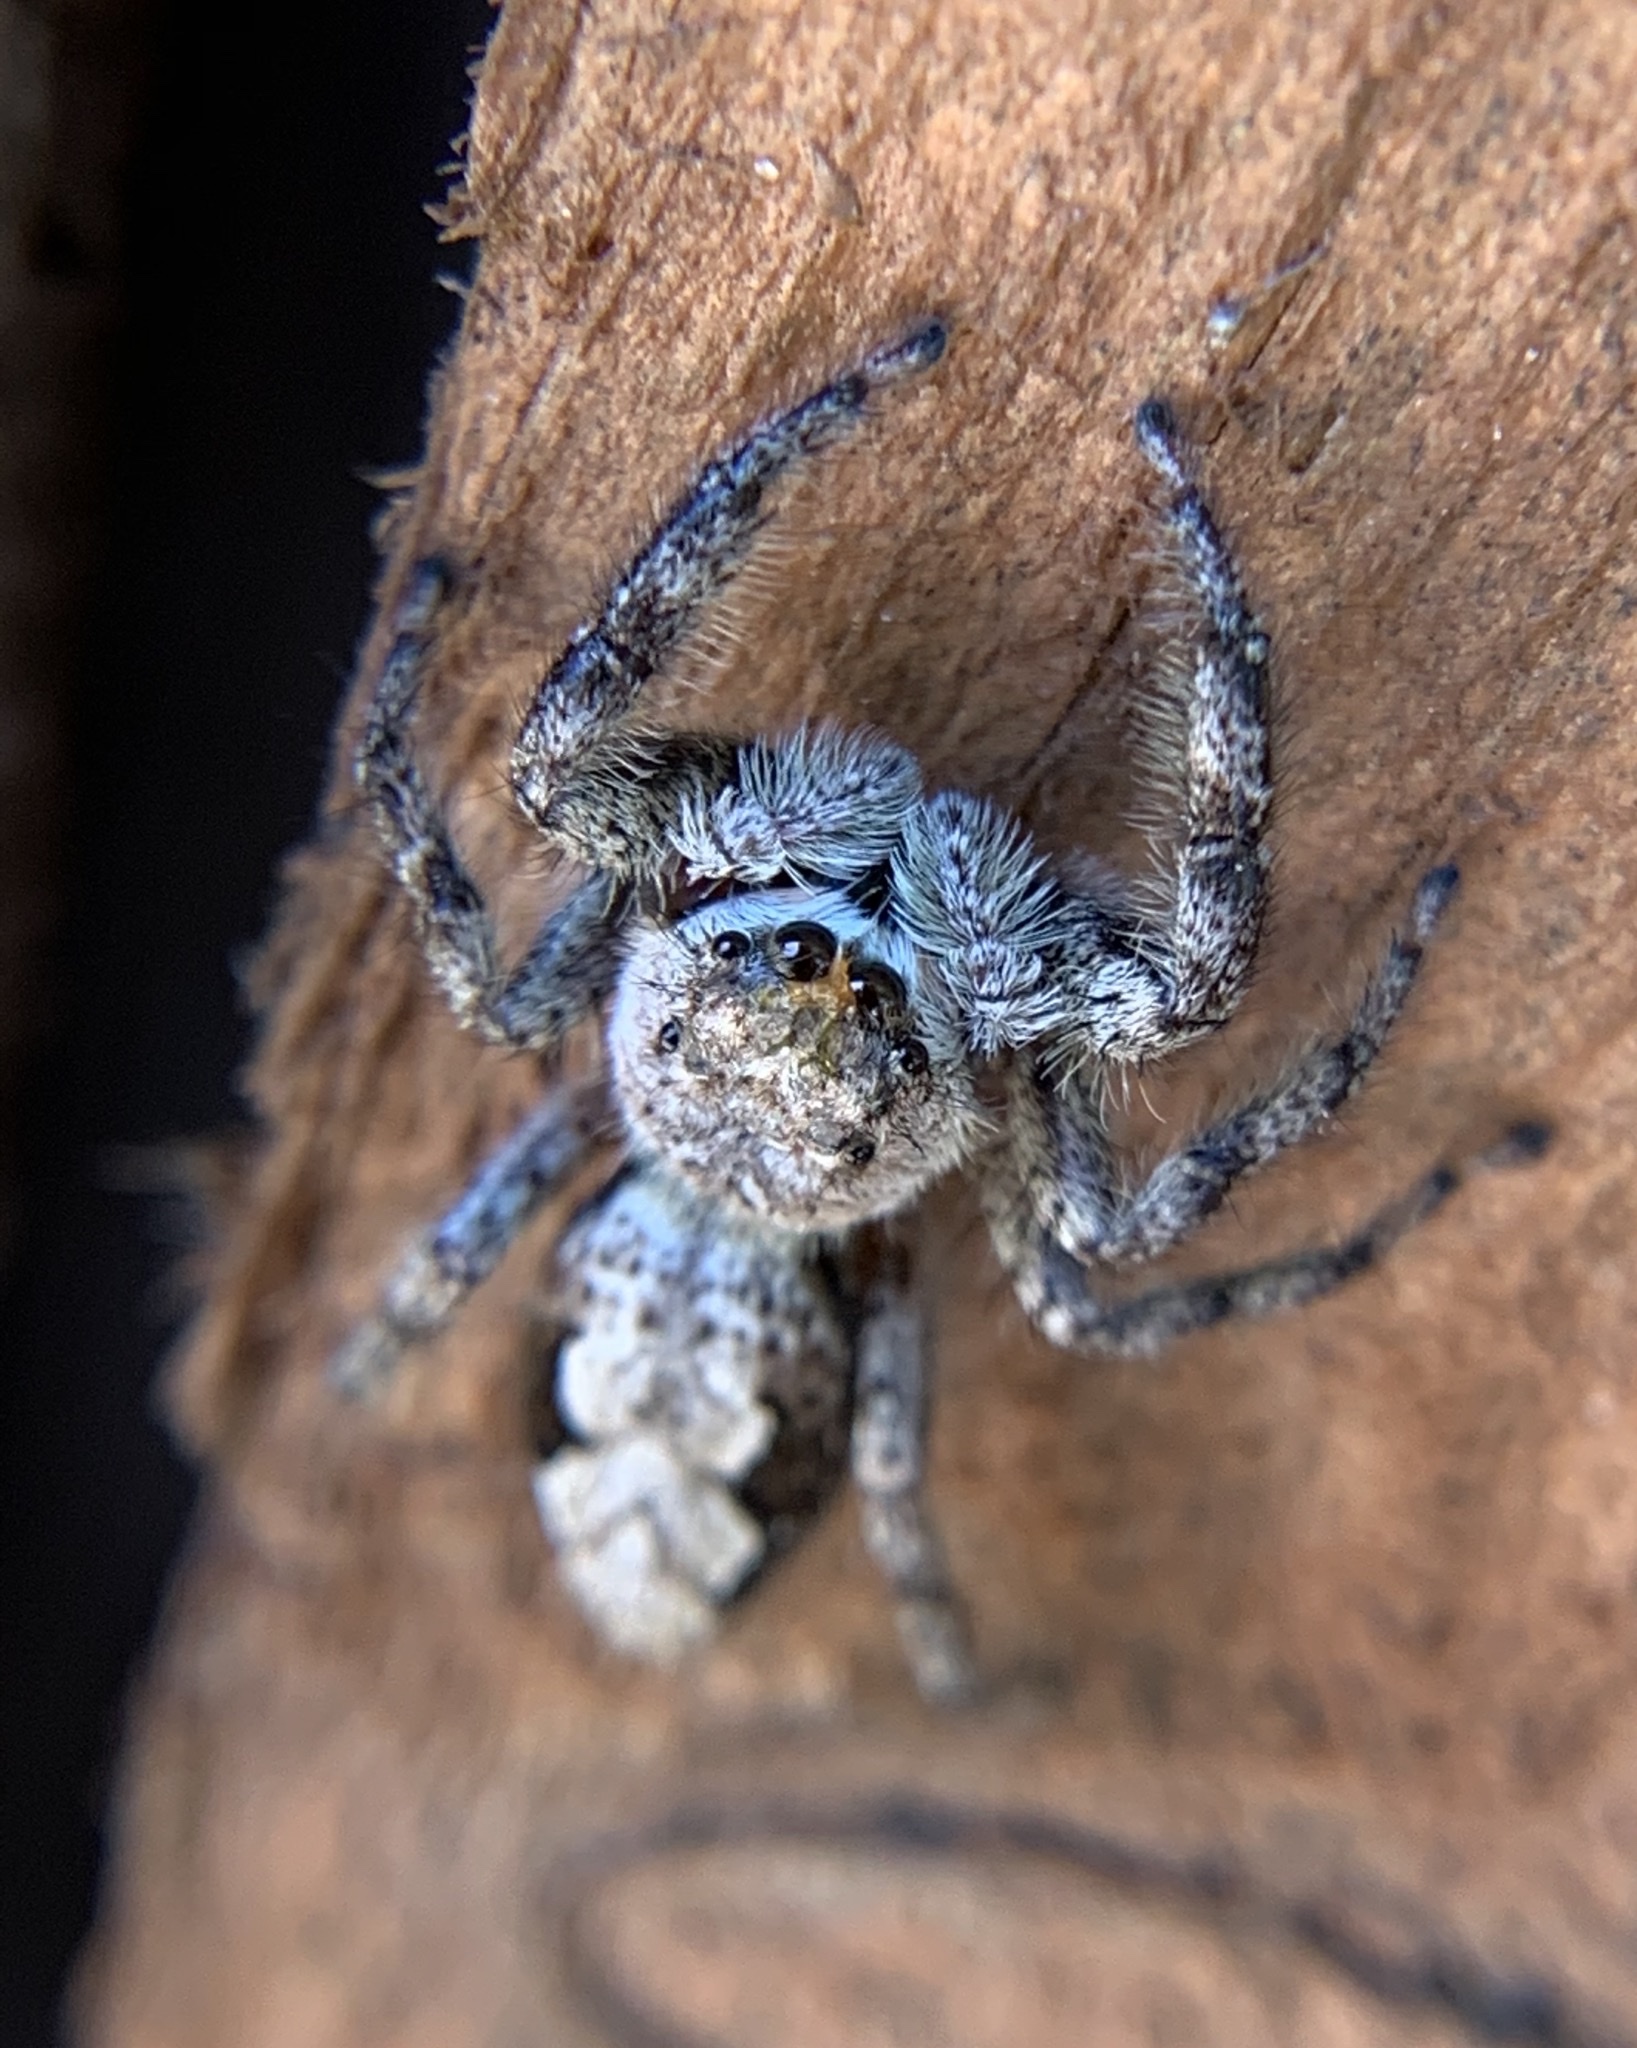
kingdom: Animalia
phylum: Arthropoda
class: Arachnida
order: Araneae
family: Salticidae
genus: Platycryptus
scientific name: Platycryptus undatus
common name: Tan jumping spider
